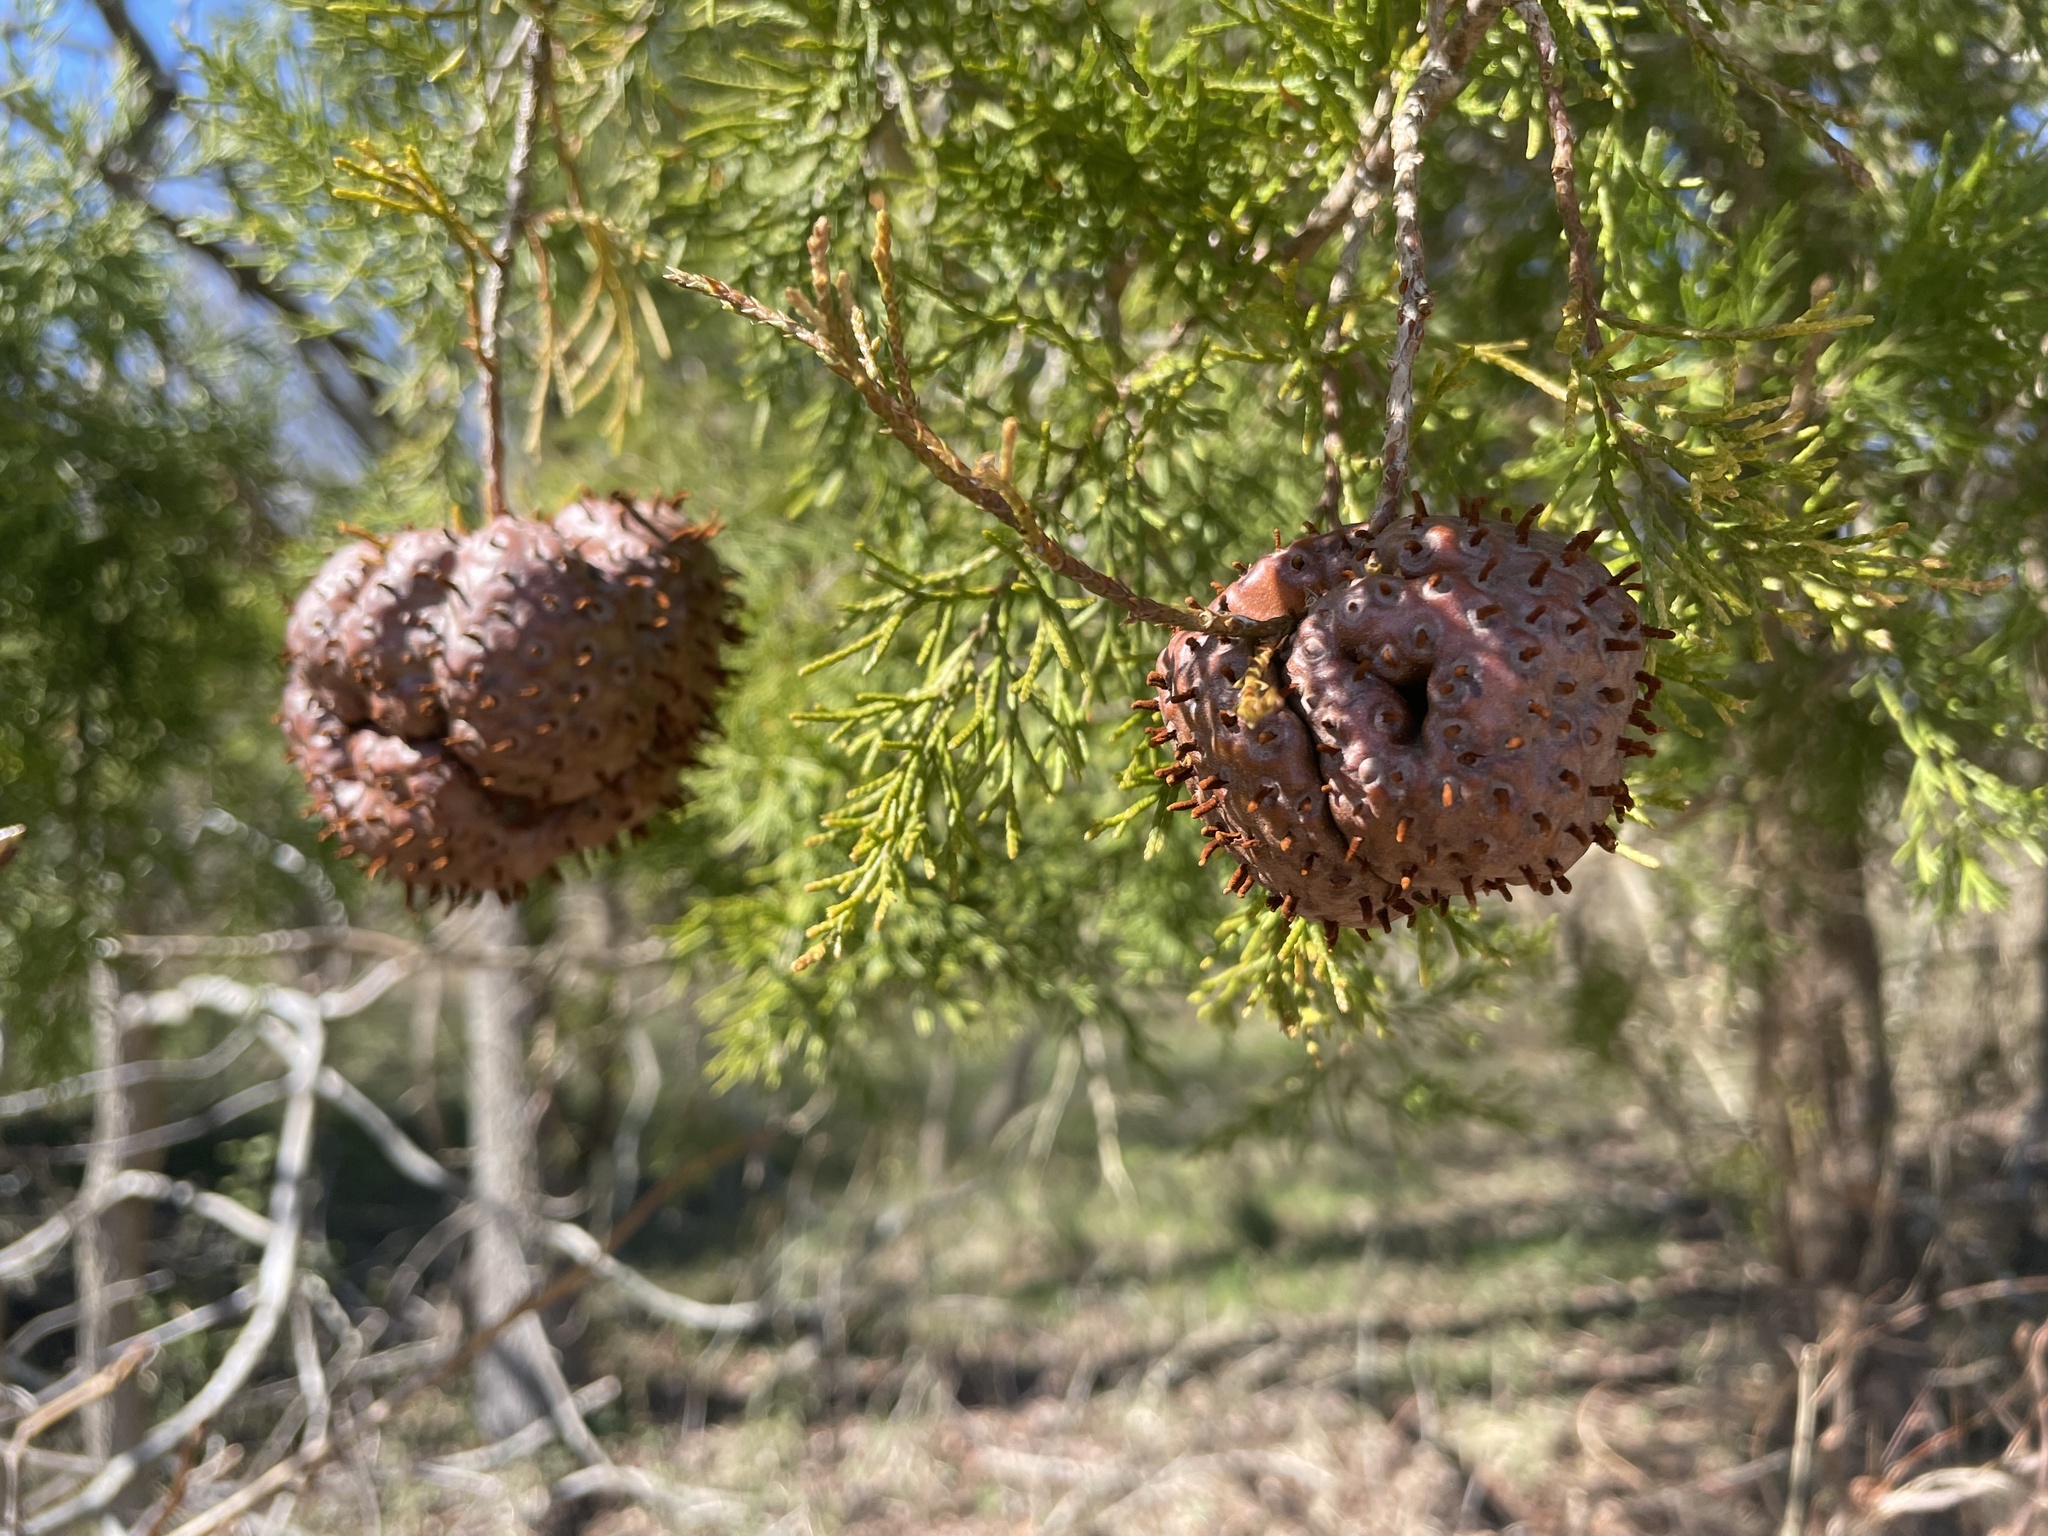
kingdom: Fungi
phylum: Basidiomycota
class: Pucciniomycetes
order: Pucciniales
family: Gymnosporangiaceae
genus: Gymnosporangium
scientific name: Gymnosporangium juniperi-virginianae
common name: Juniper-apple rust
